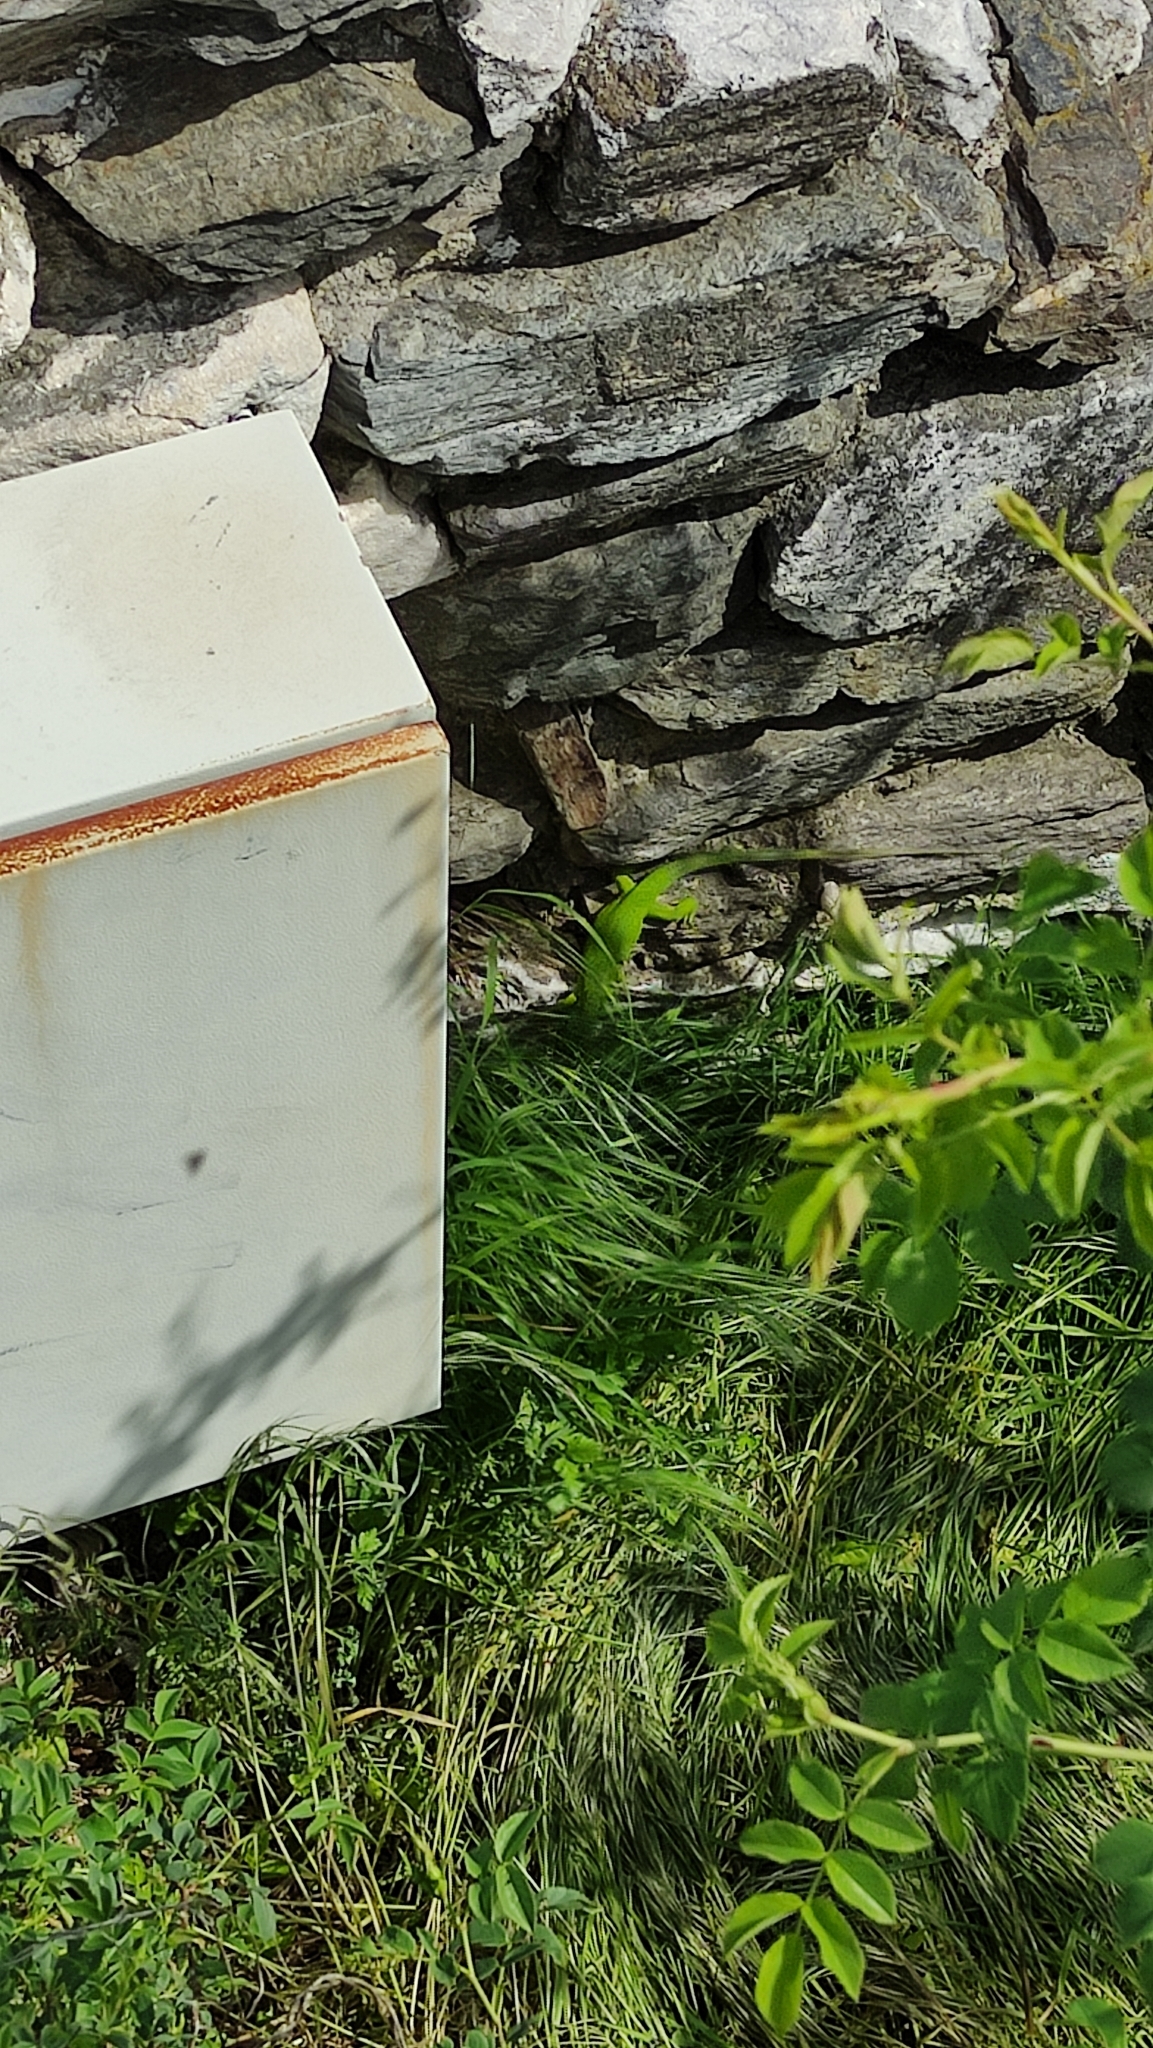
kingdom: Animalia
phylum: Chordata
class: Squamata
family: Lacertidae
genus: Lacerta
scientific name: Lacerta viridis
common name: European green lizard
